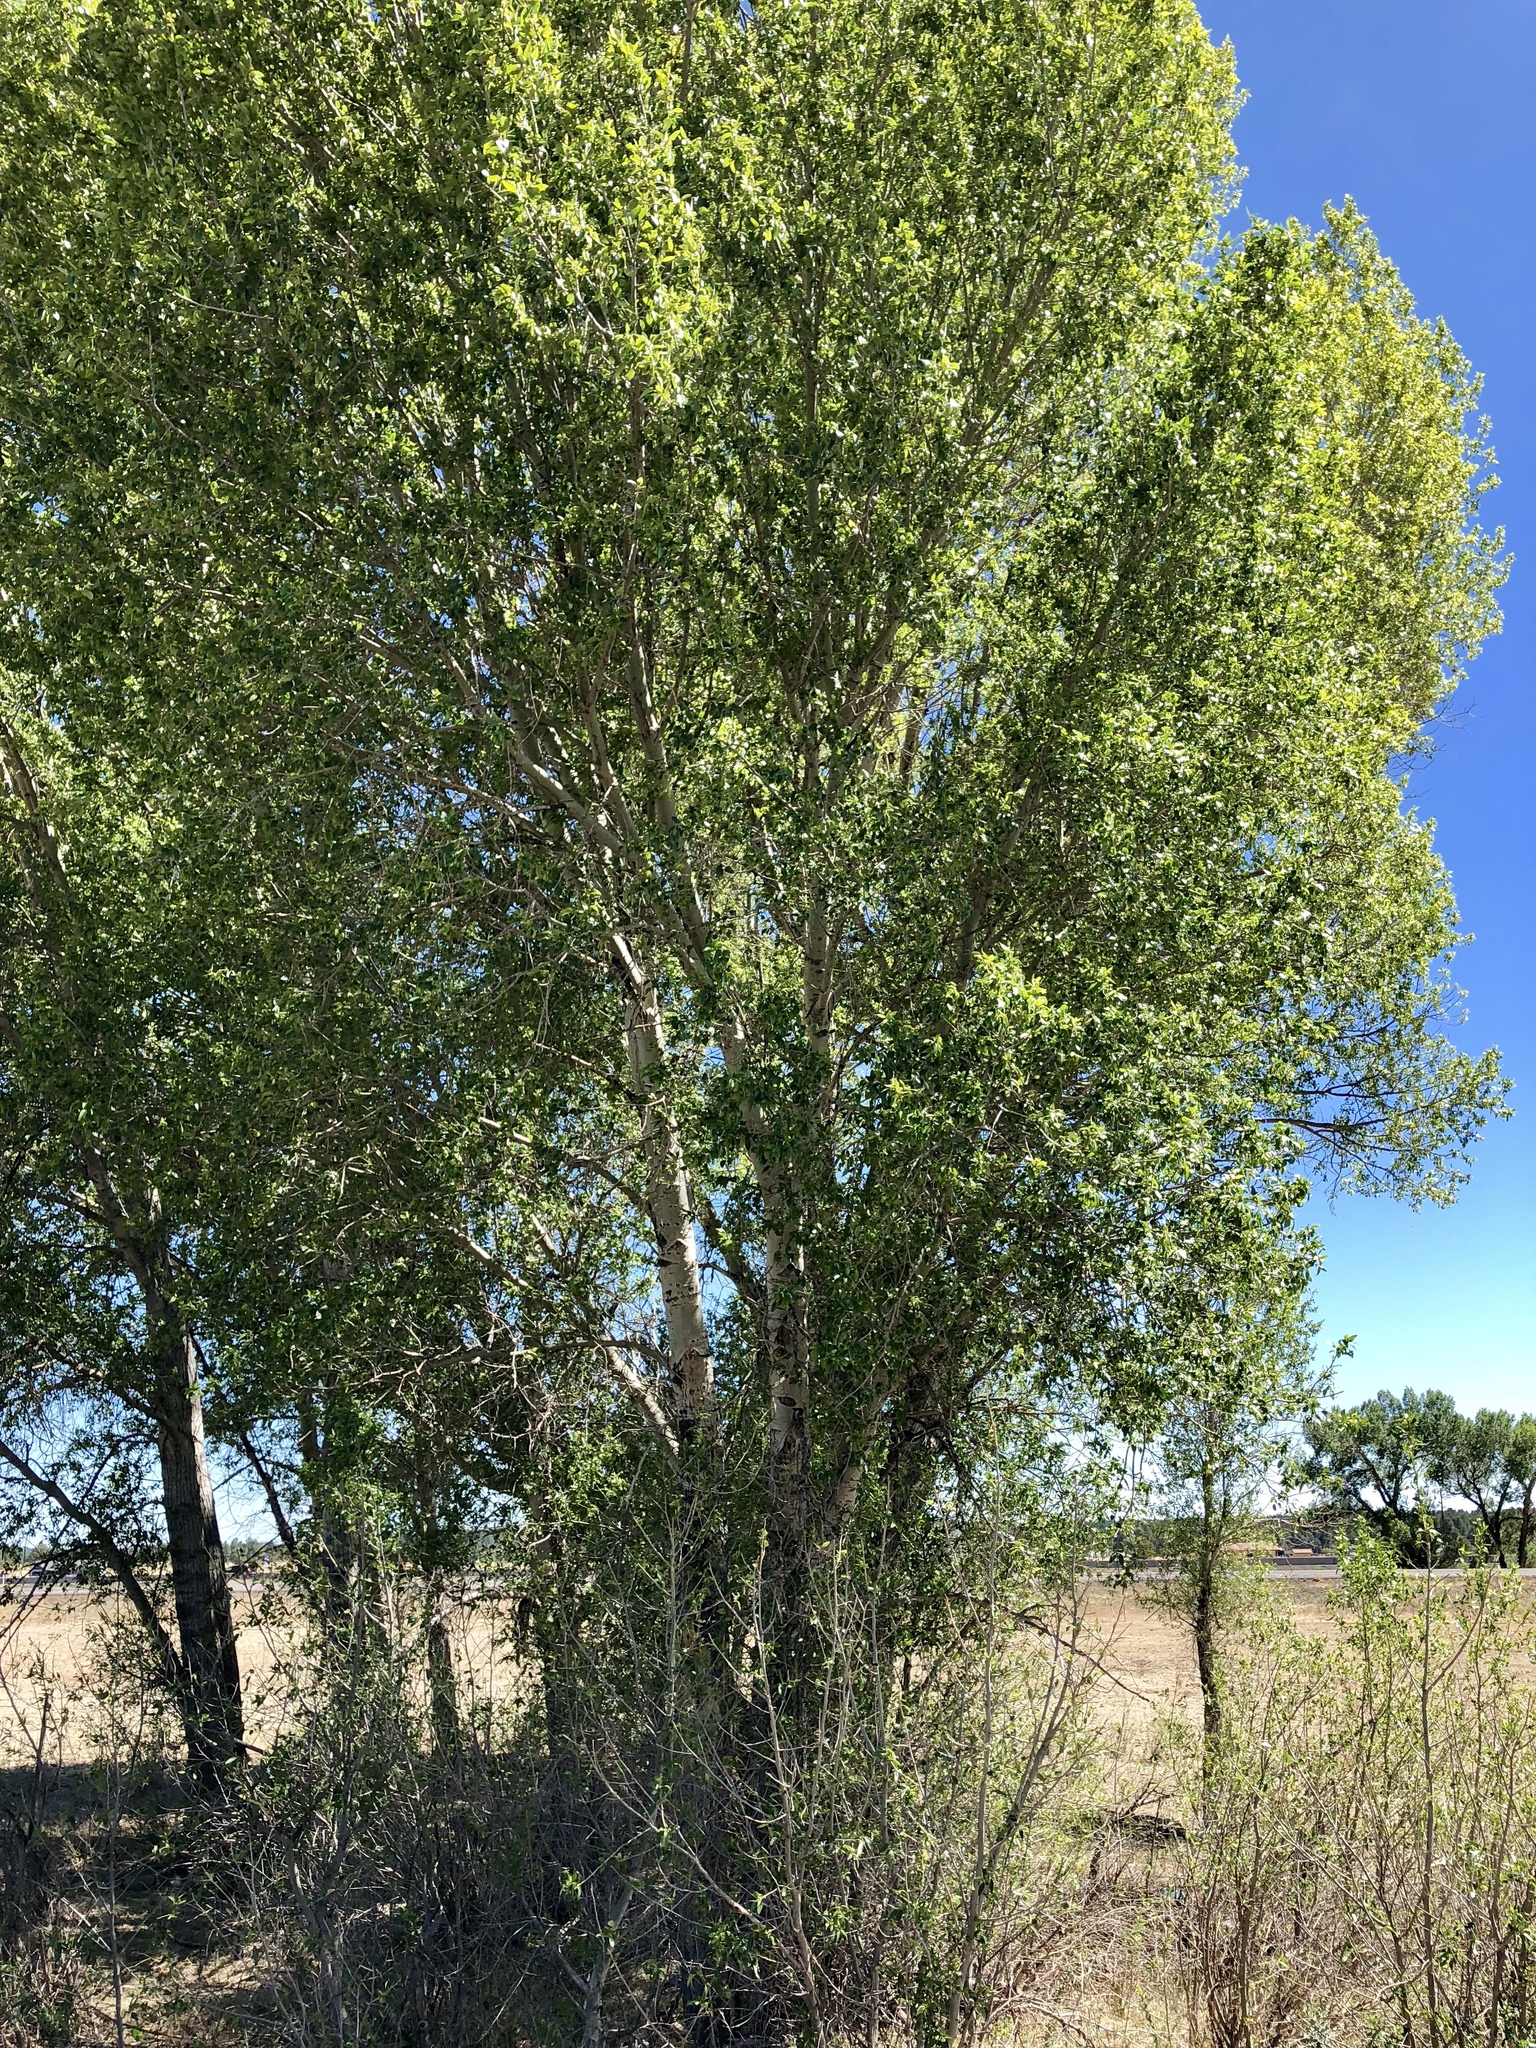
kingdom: Plantae
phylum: Tracheophyta
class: Magnoliopsida
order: Malpighiales
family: Salicaceae
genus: Populus
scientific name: Populus tremuloides
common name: Quaking aspen
